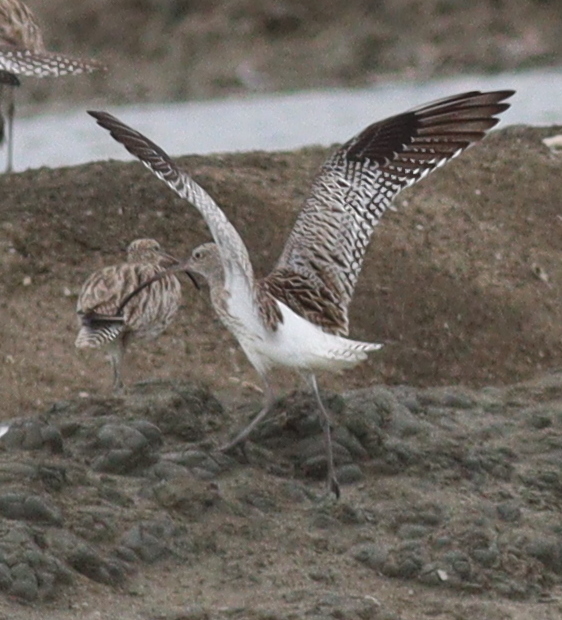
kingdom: Animalia
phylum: Chordata
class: Aves
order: Charadriiformes
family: Scolopacidae
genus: Numenius
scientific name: Numenius arquata
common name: Eurasian curlew
